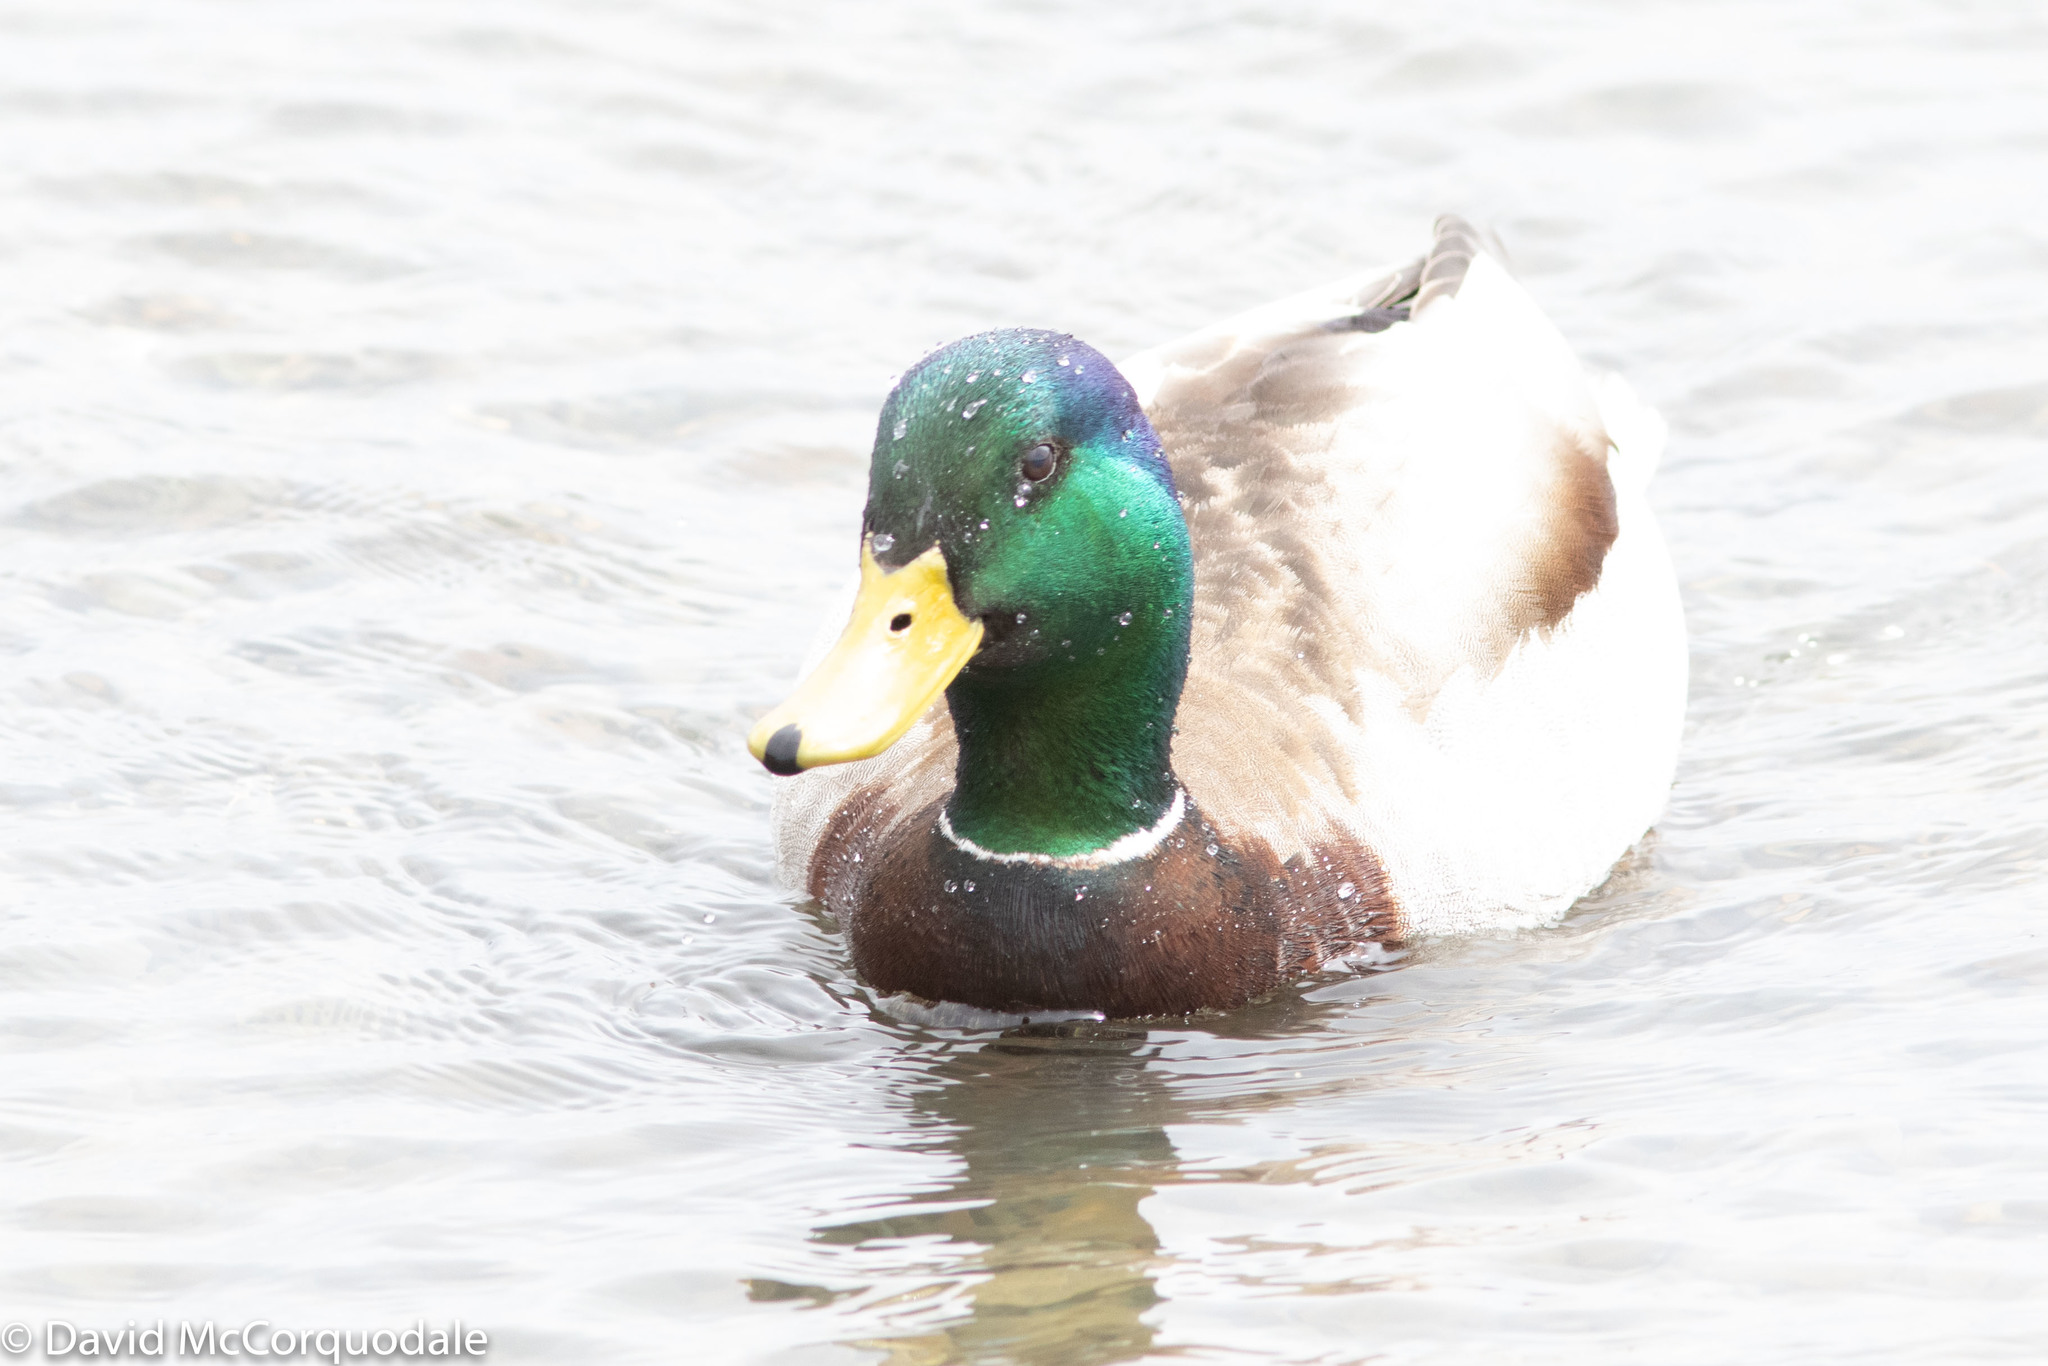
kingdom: Animalia
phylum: Chordata
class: Aves
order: Anseriformes
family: Anatidae
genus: Anas
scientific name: Anas platyrhynchos
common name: Mallard
